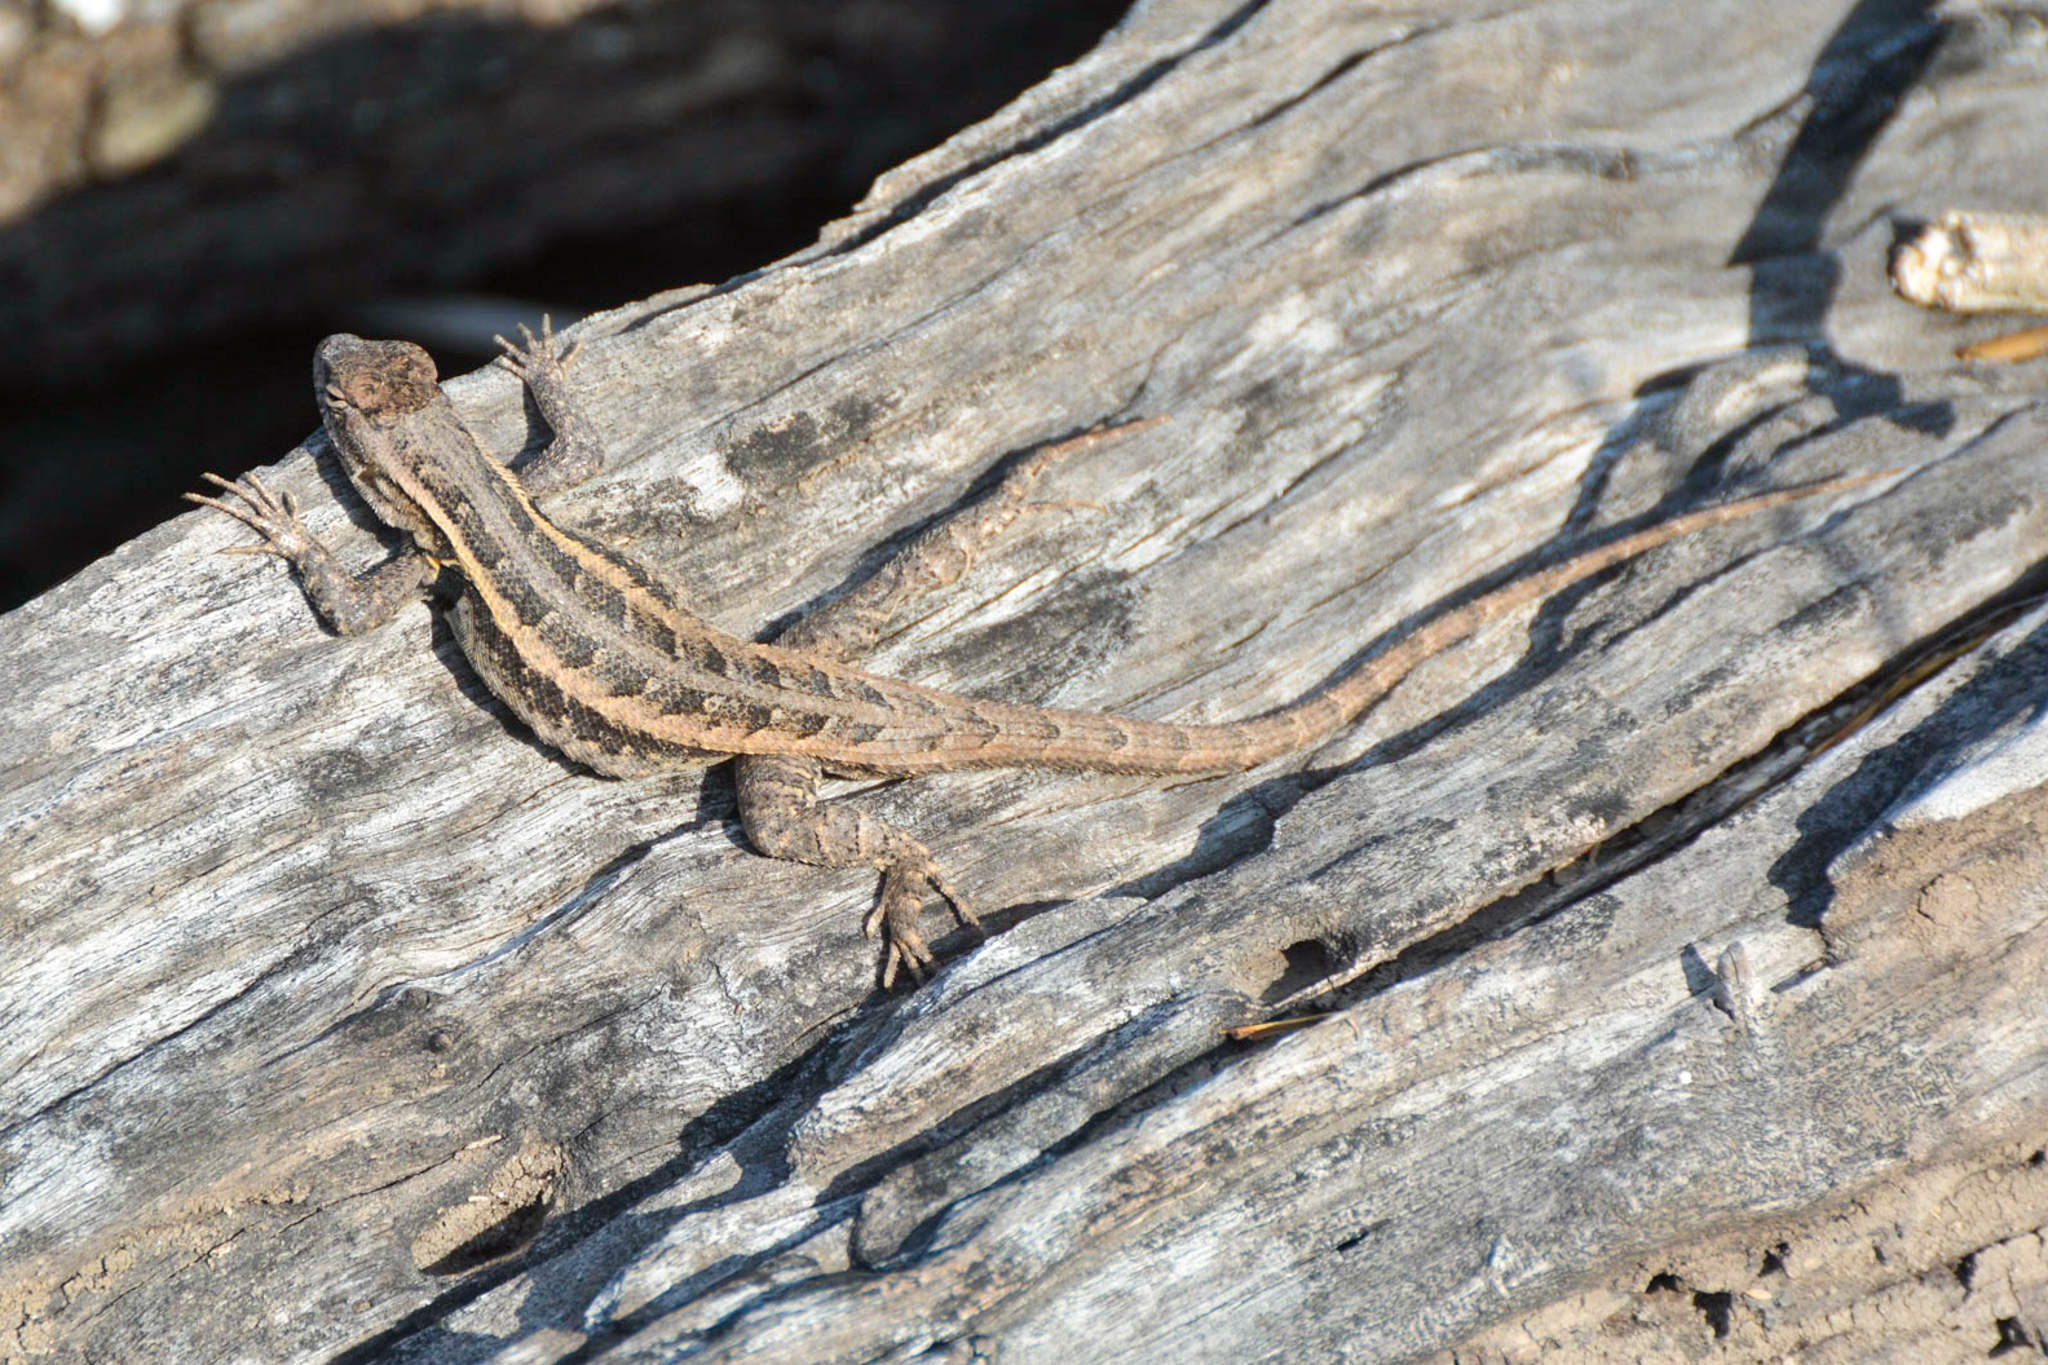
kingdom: Animalia
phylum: Chordata
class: Squamata
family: Phrynosomatidae
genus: Sceloporus
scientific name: Sceloporus variabilis
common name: Rosebelly lizard
